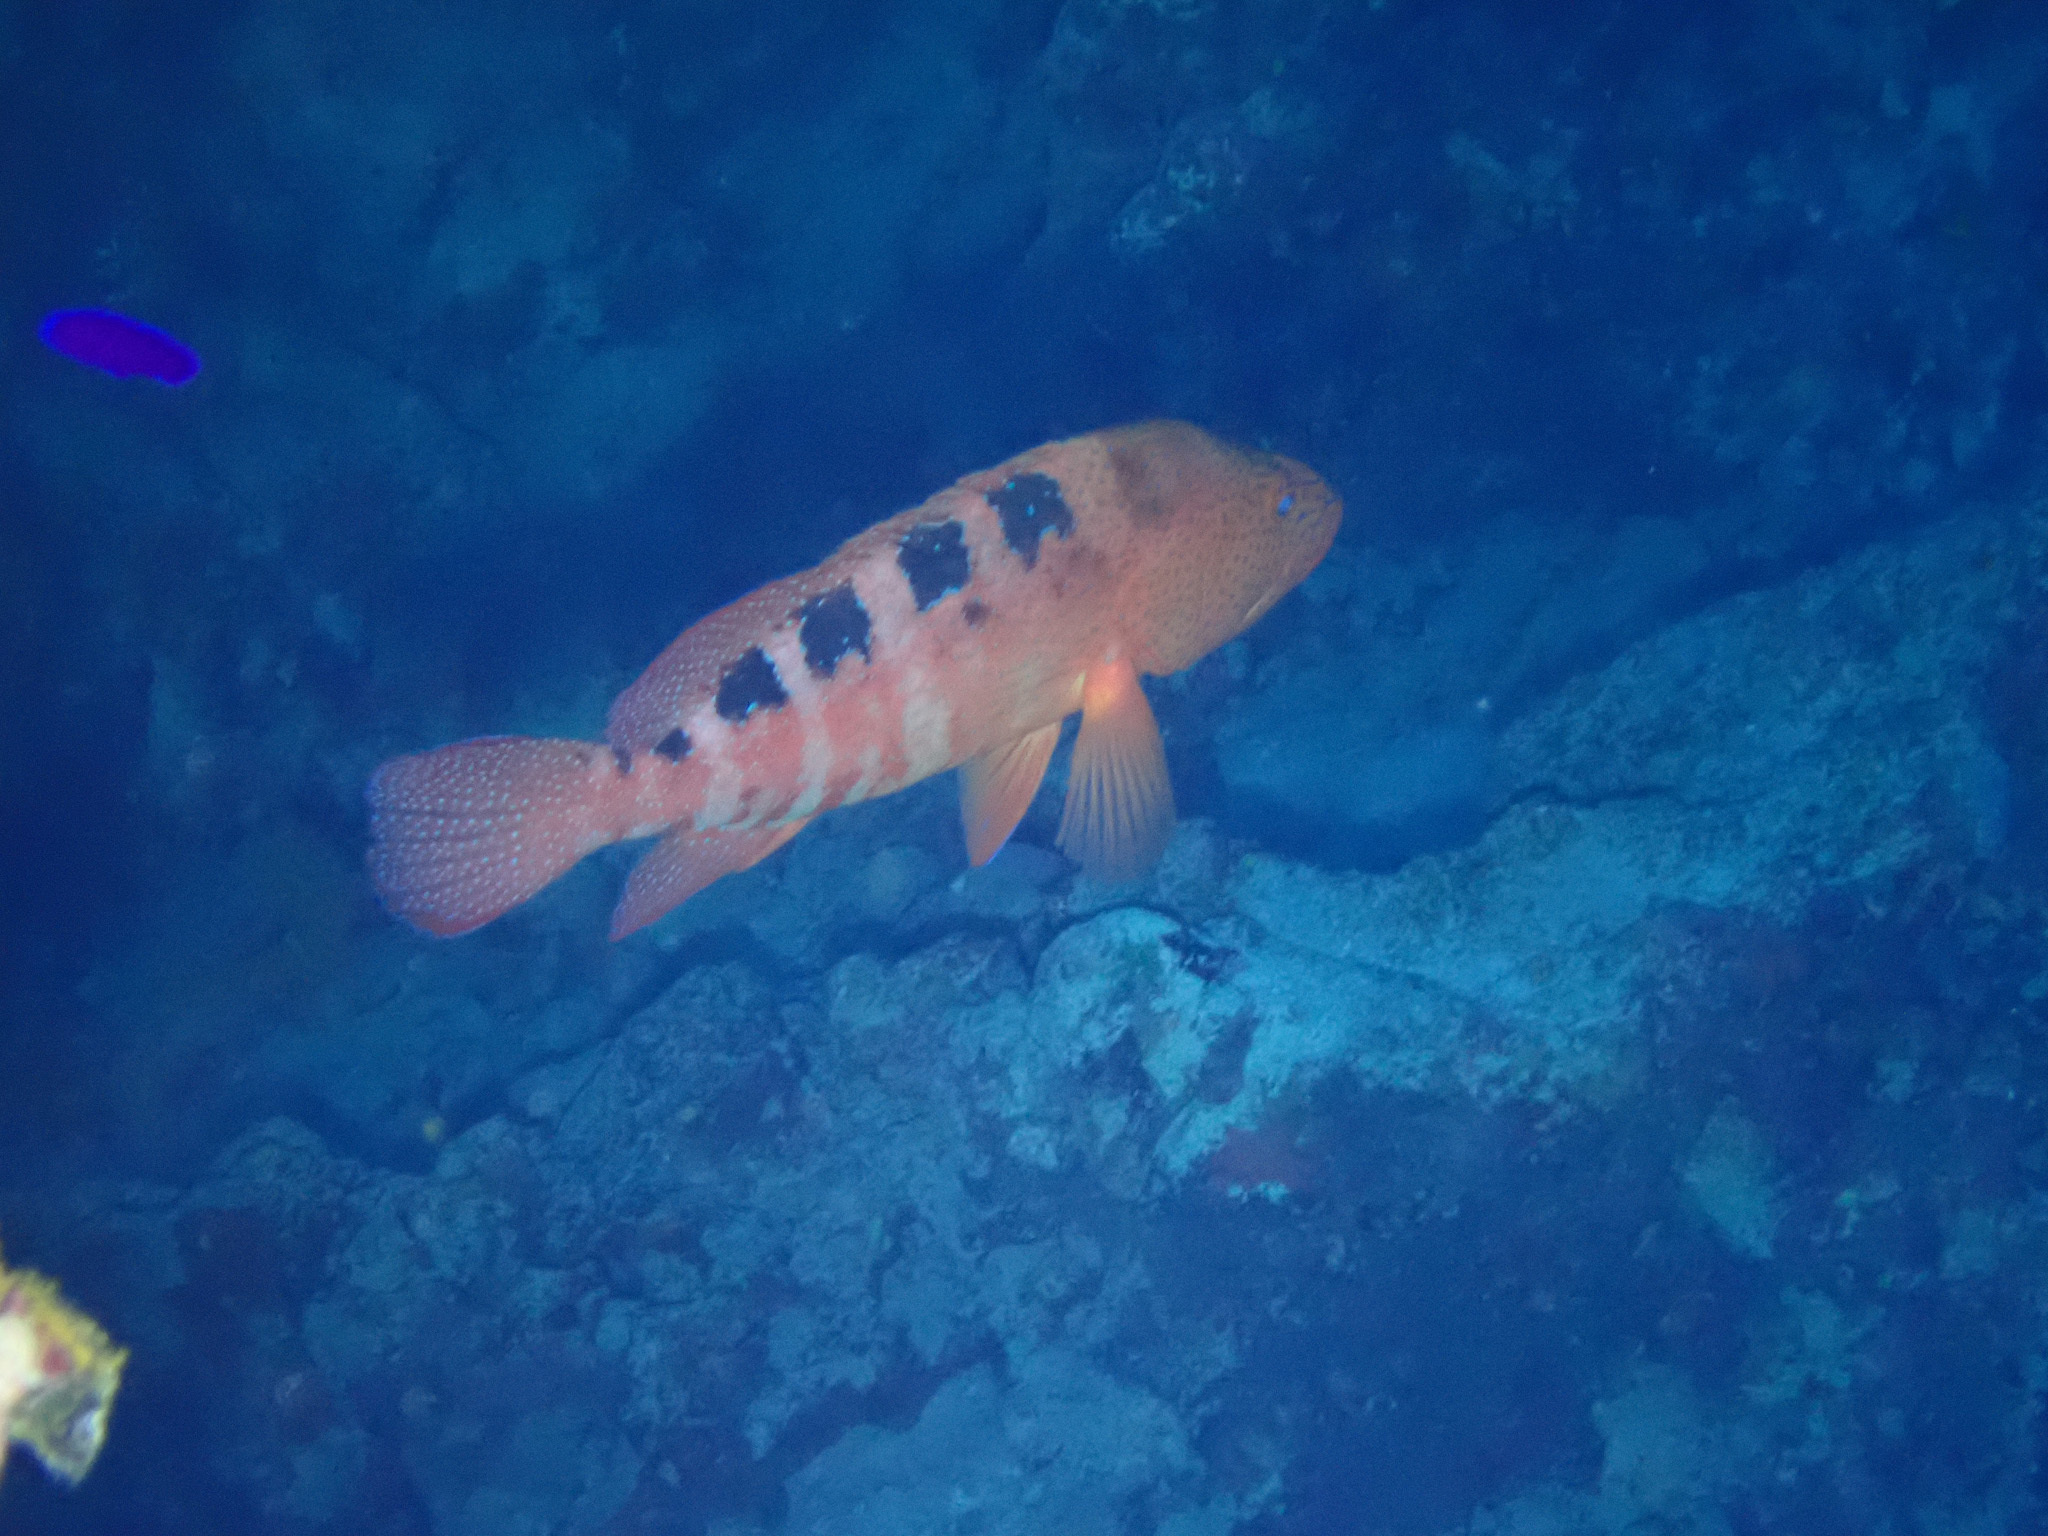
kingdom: Animalia
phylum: Chordata
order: Perciformes
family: Serranidae
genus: Cephalopholis
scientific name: Cephalopholis sexmaculata
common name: Sixblotch hind
